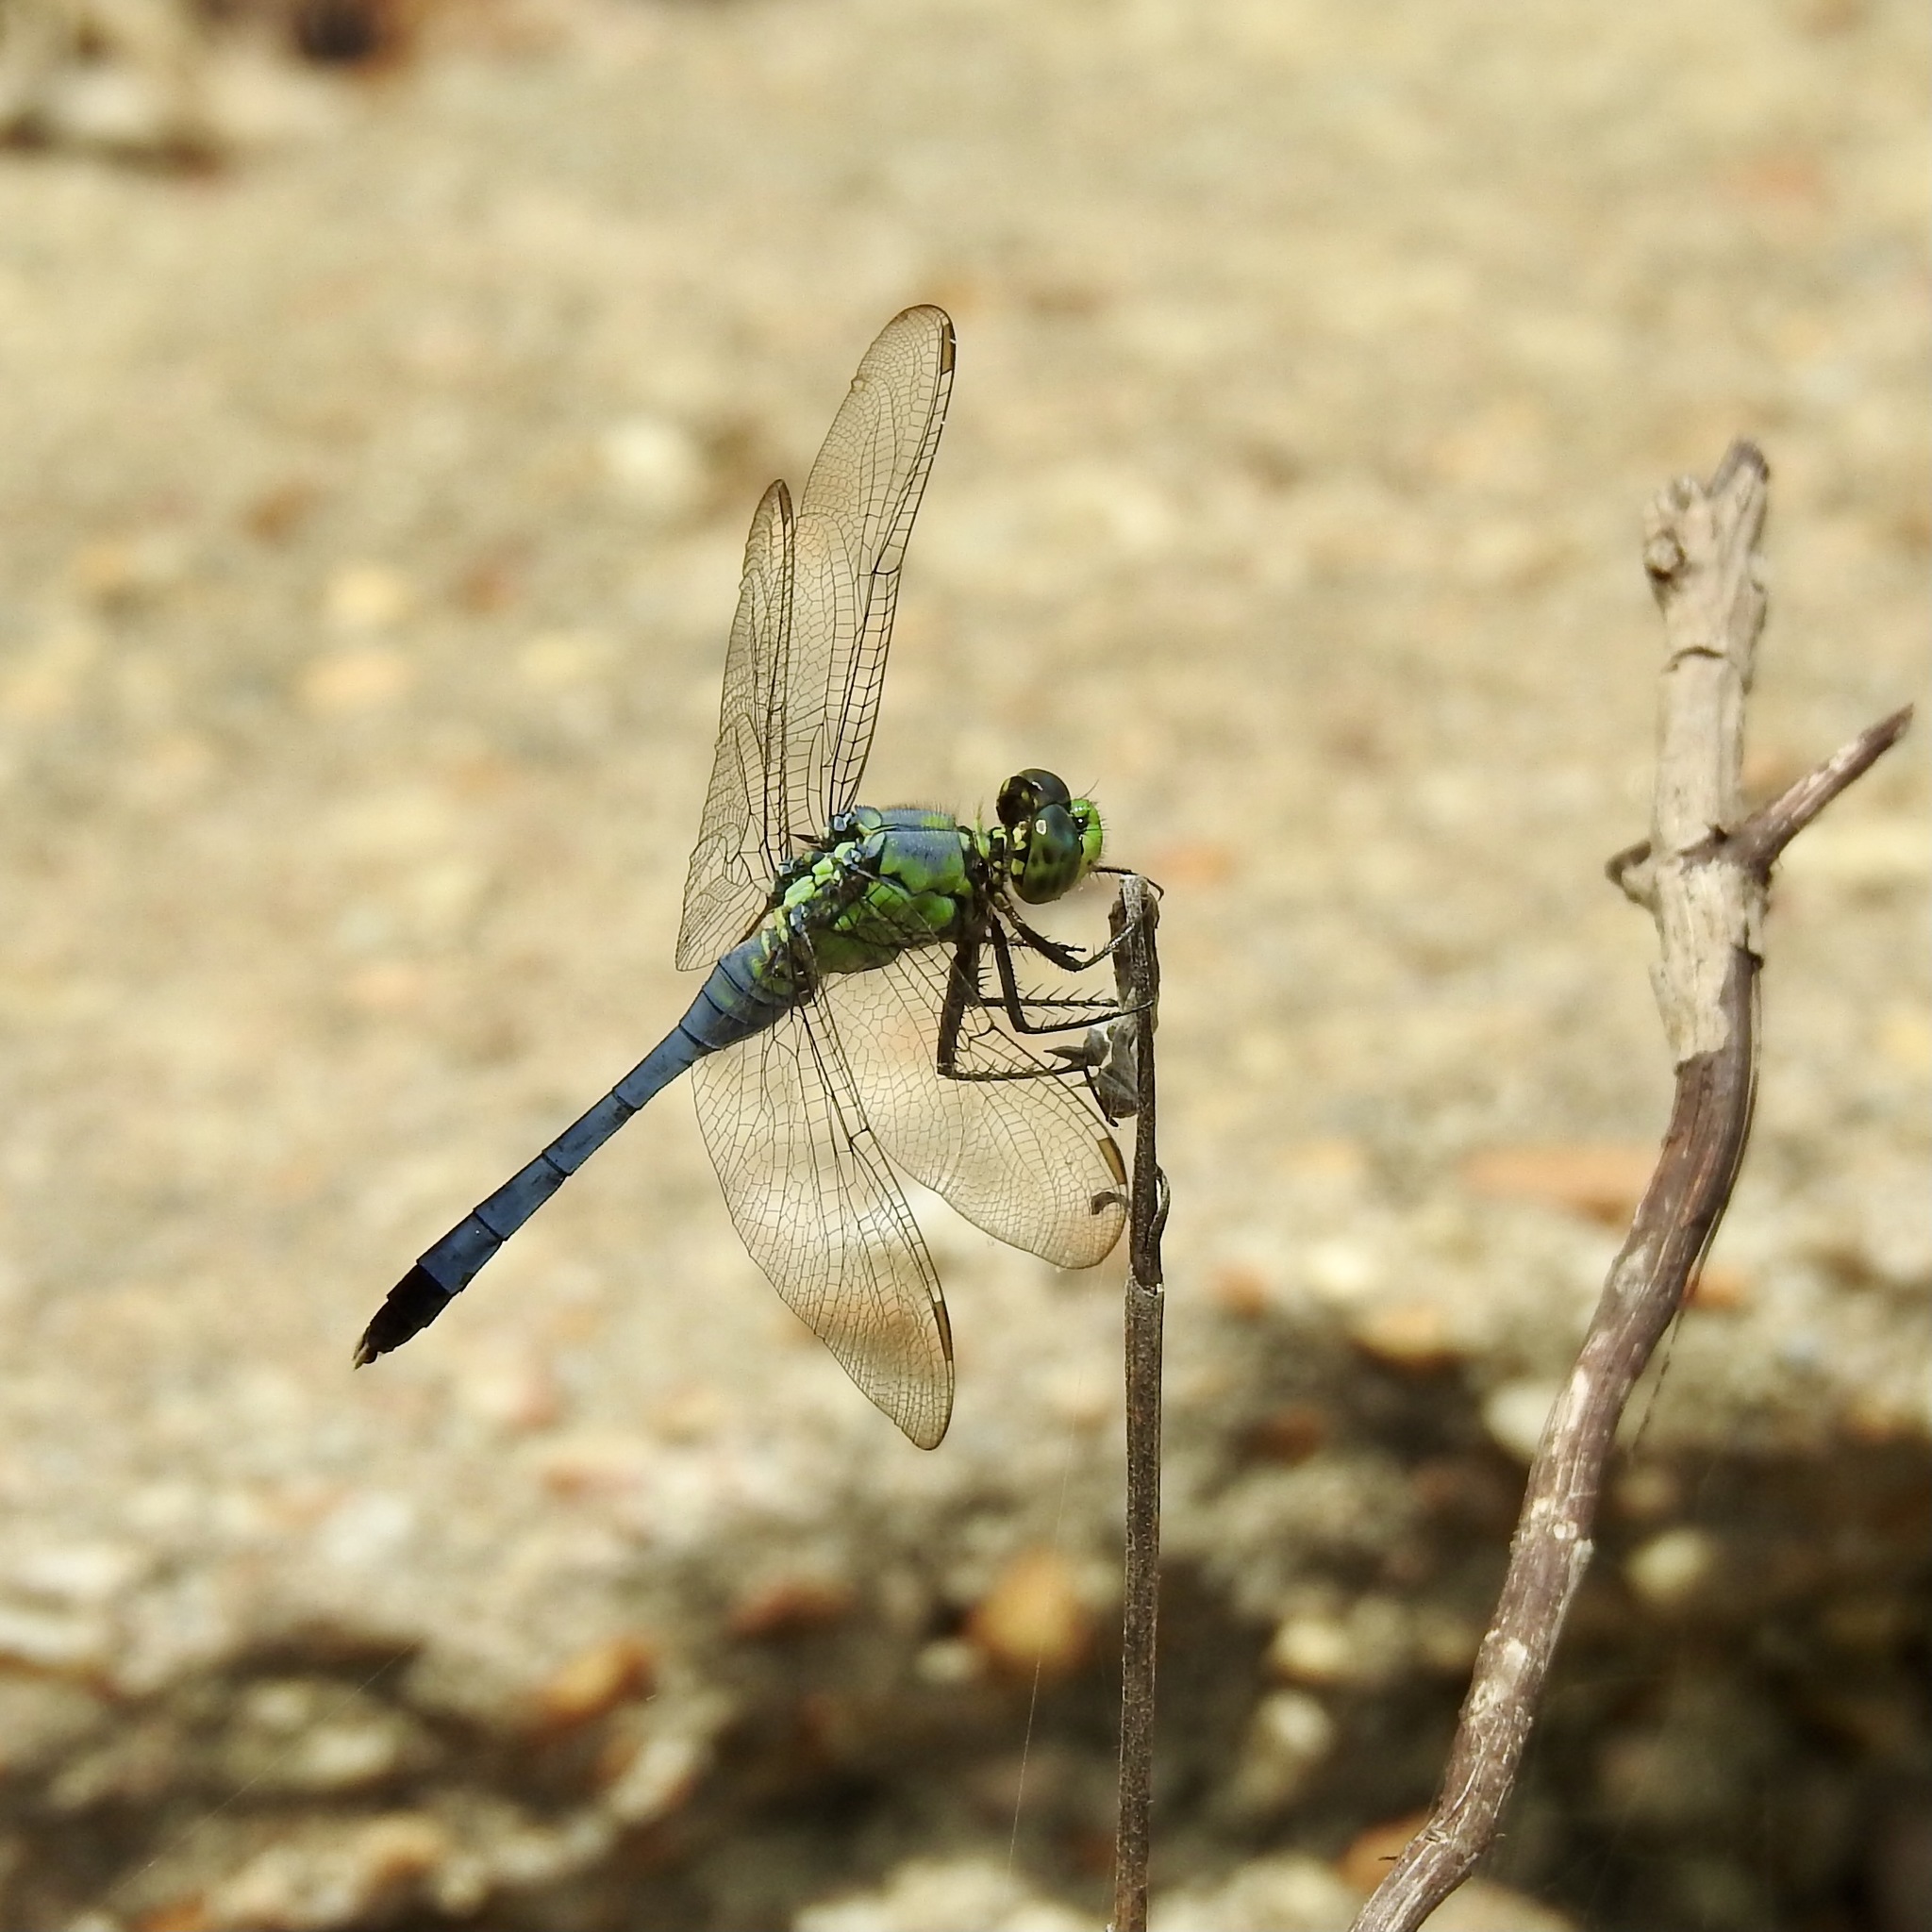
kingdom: Animalia
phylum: Arthropoda
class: Insecta
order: Odonata
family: Libellulidae
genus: Erythemis
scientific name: Erythemis simplicicollis
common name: Eastern pondhawk
